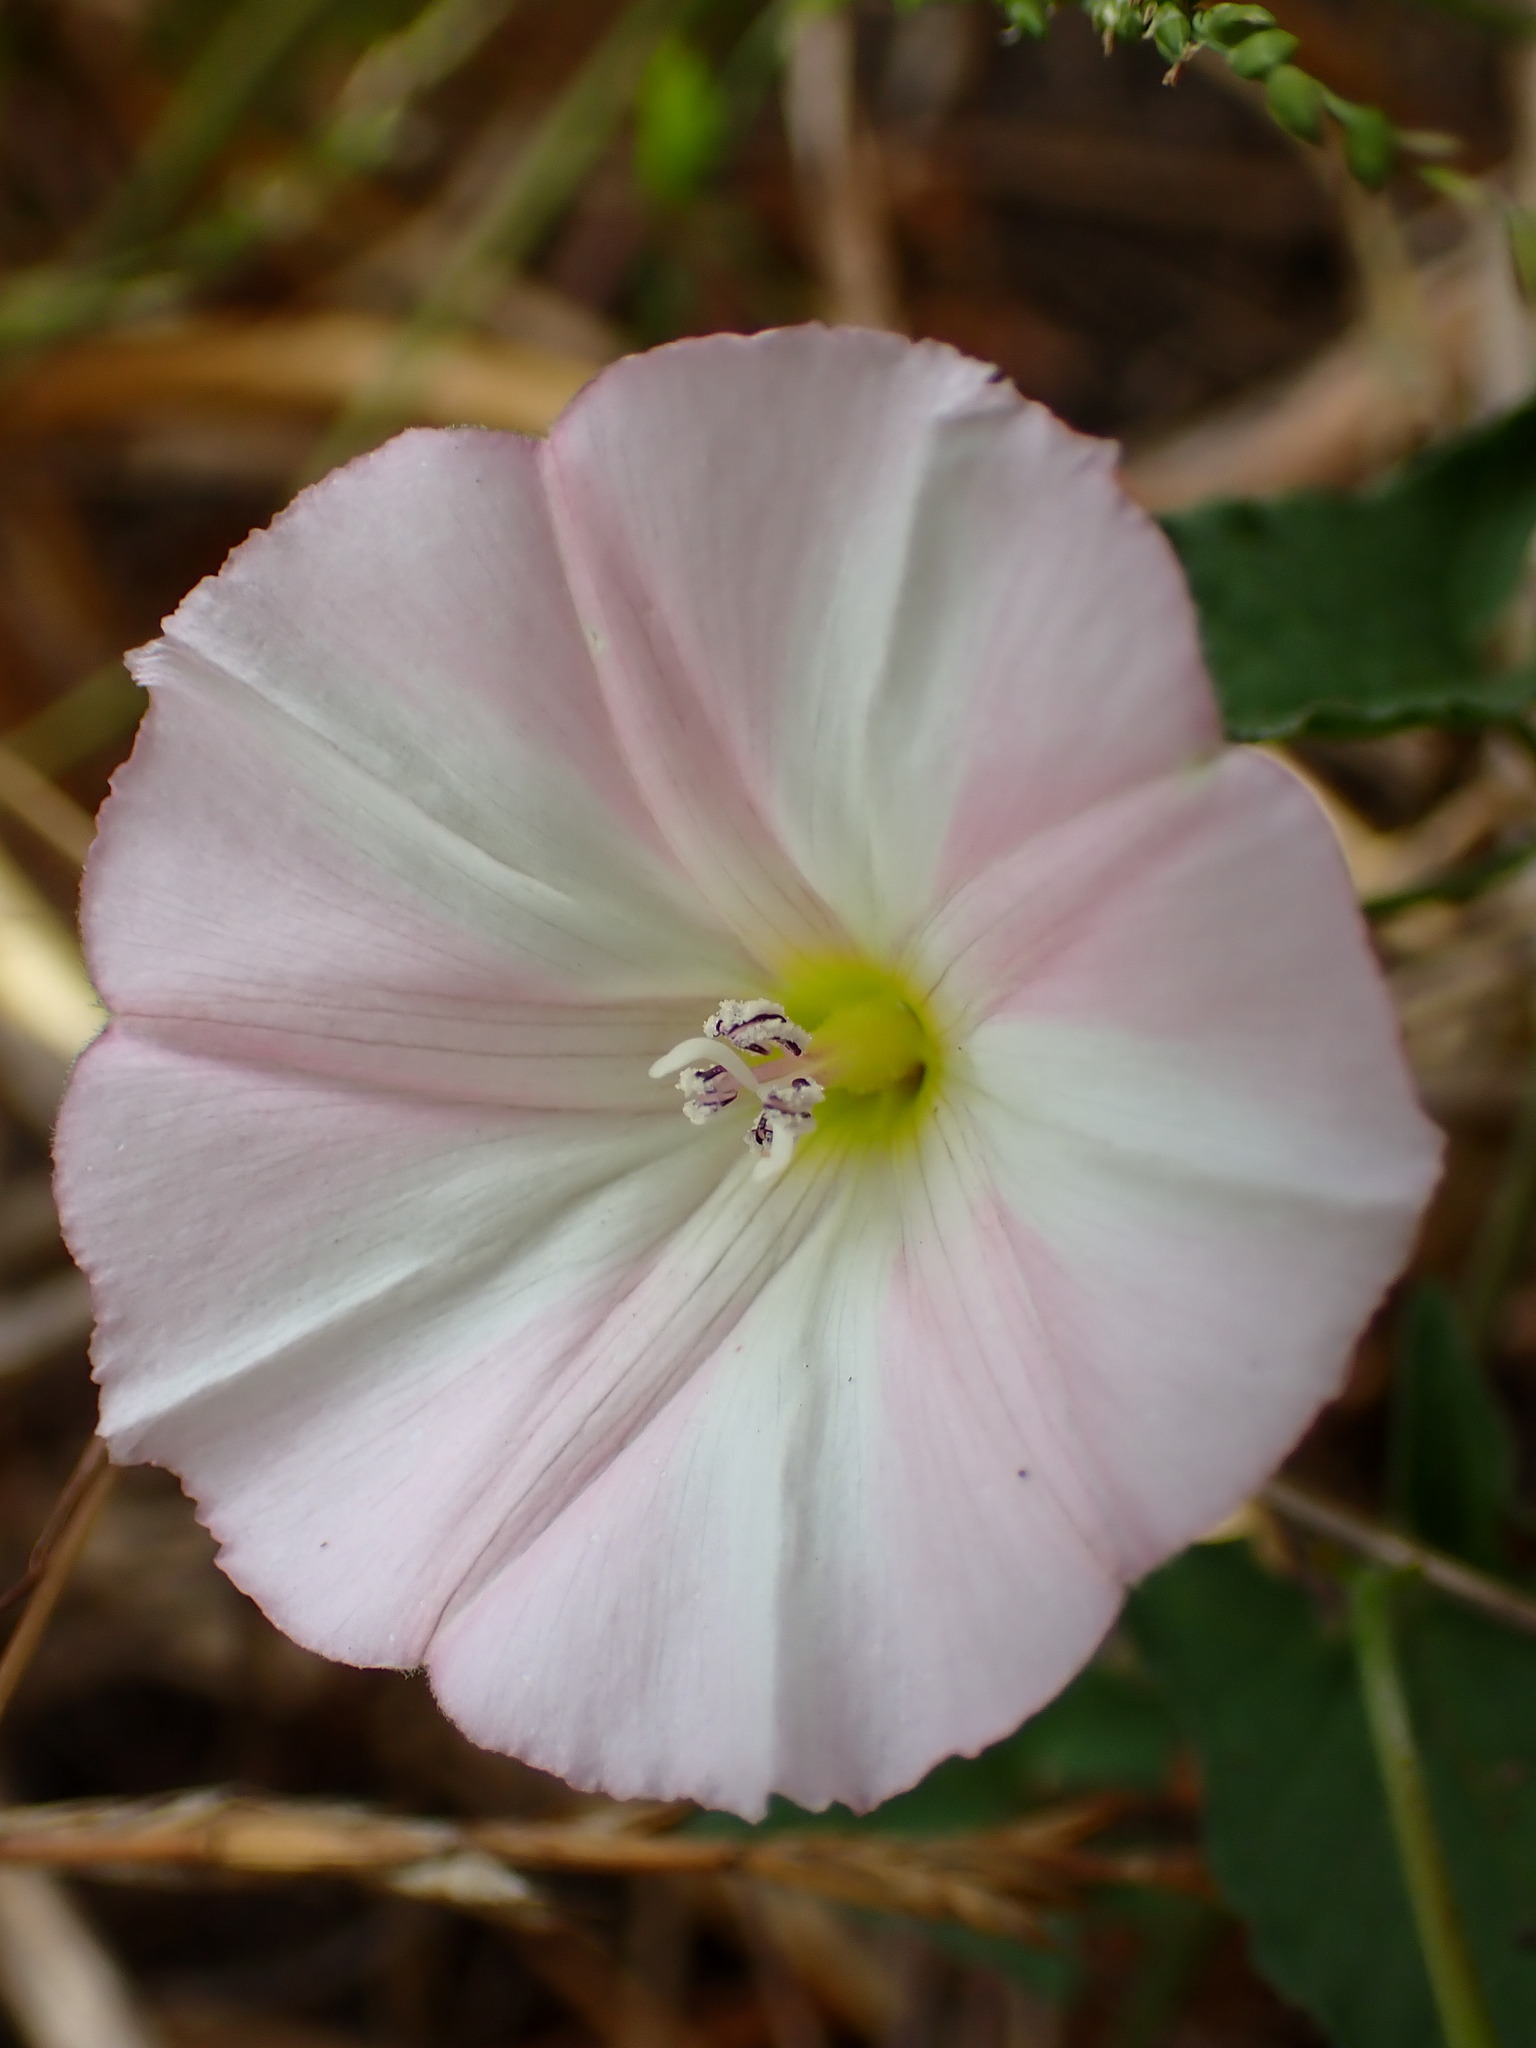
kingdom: Plantae
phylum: Tracheophyta
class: Magnoliopsida
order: Solanales
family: Convolvulaceae
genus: Convolvulus
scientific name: Convolvulus arvensis
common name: Field bindweed
